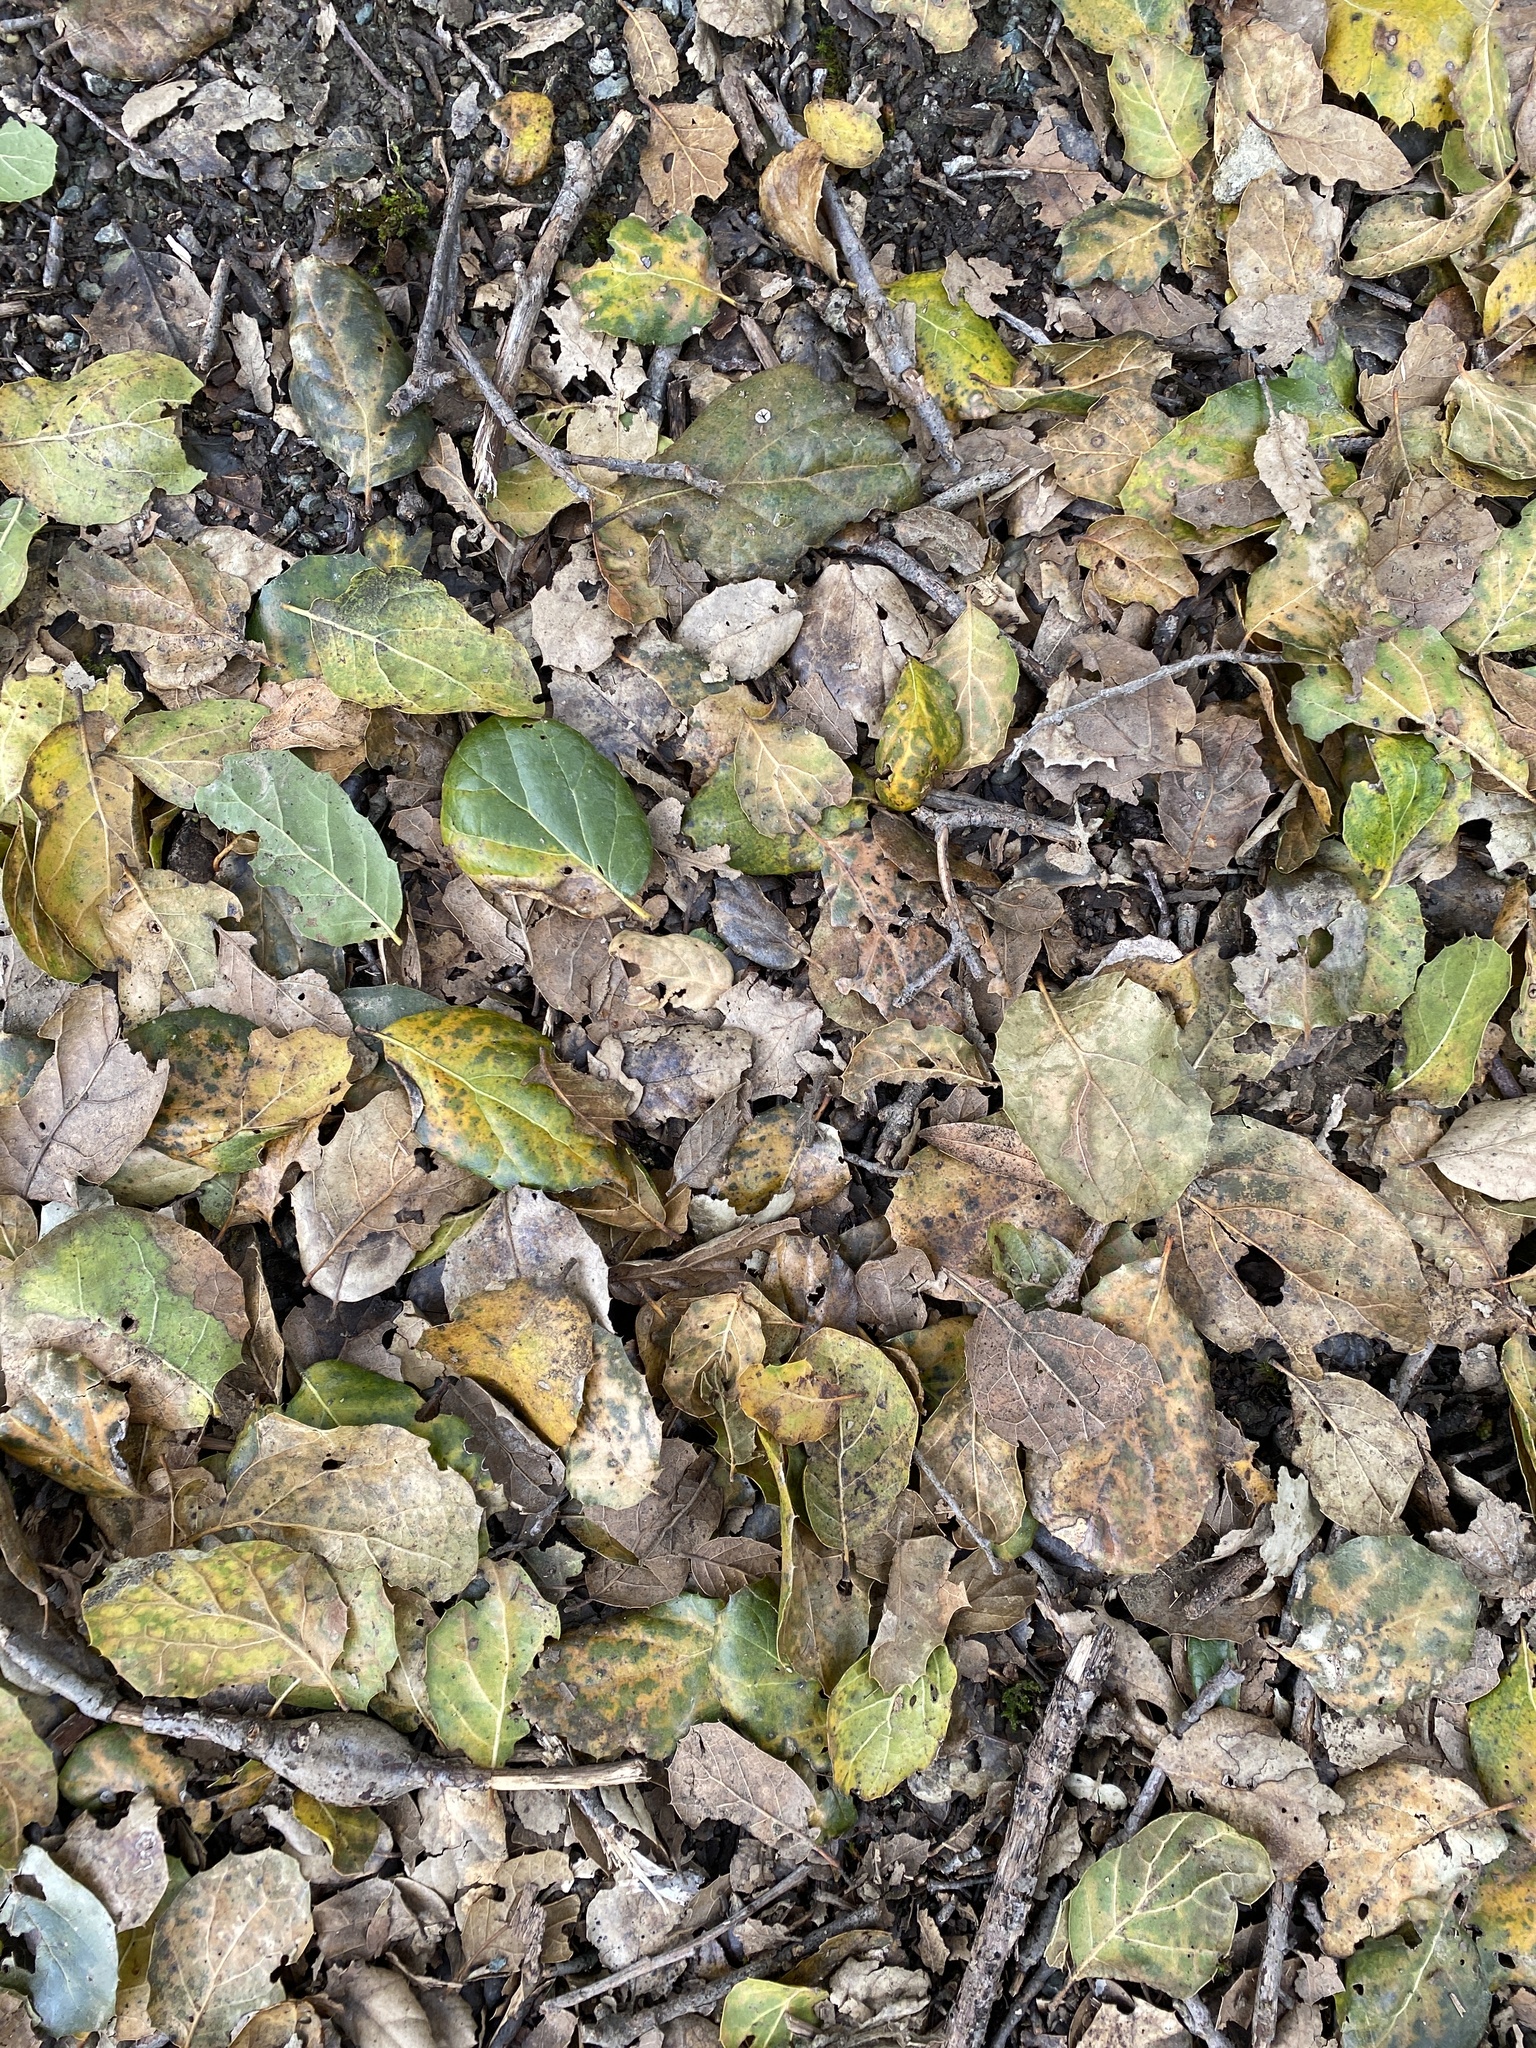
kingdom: Plantae
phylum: Tracheophyta
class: Magnoliopsida
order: Fagales
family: Fagaceae
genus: Quercus
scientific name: Quercus agrifolia
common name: California live oak
